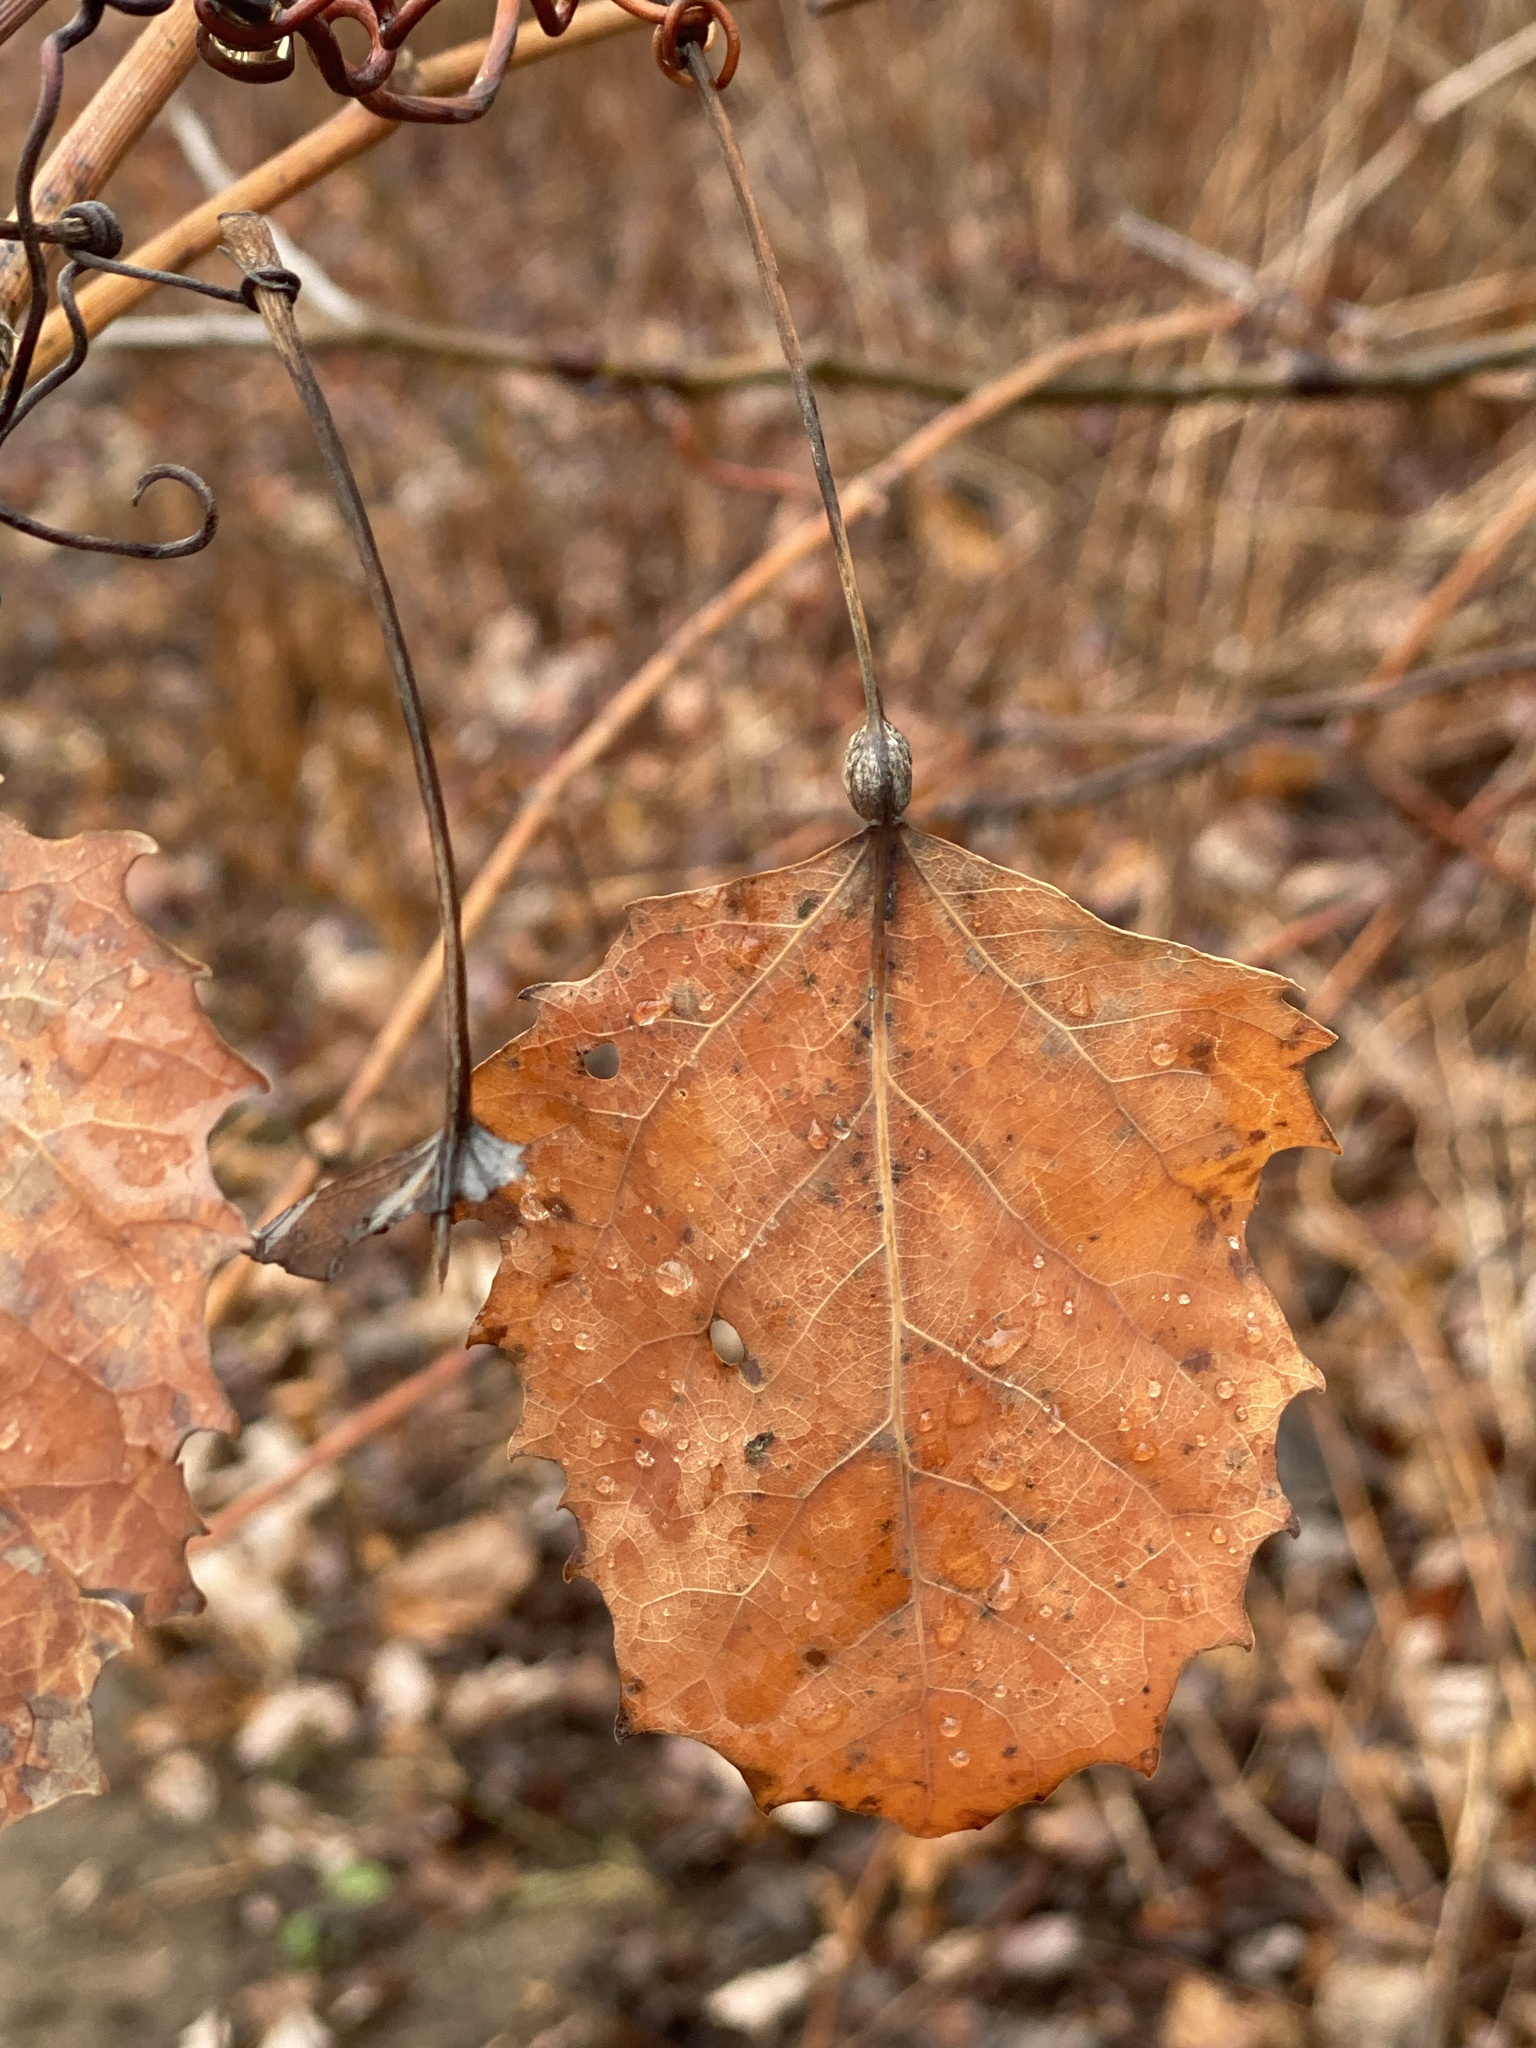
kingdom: Animalia
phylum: Arthropoda
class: Insecta
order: Lepidoptera
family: Nepticulidae
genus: Ectoedemia
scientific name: Ectoedemia populella
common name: Aspen petiole gall moth
